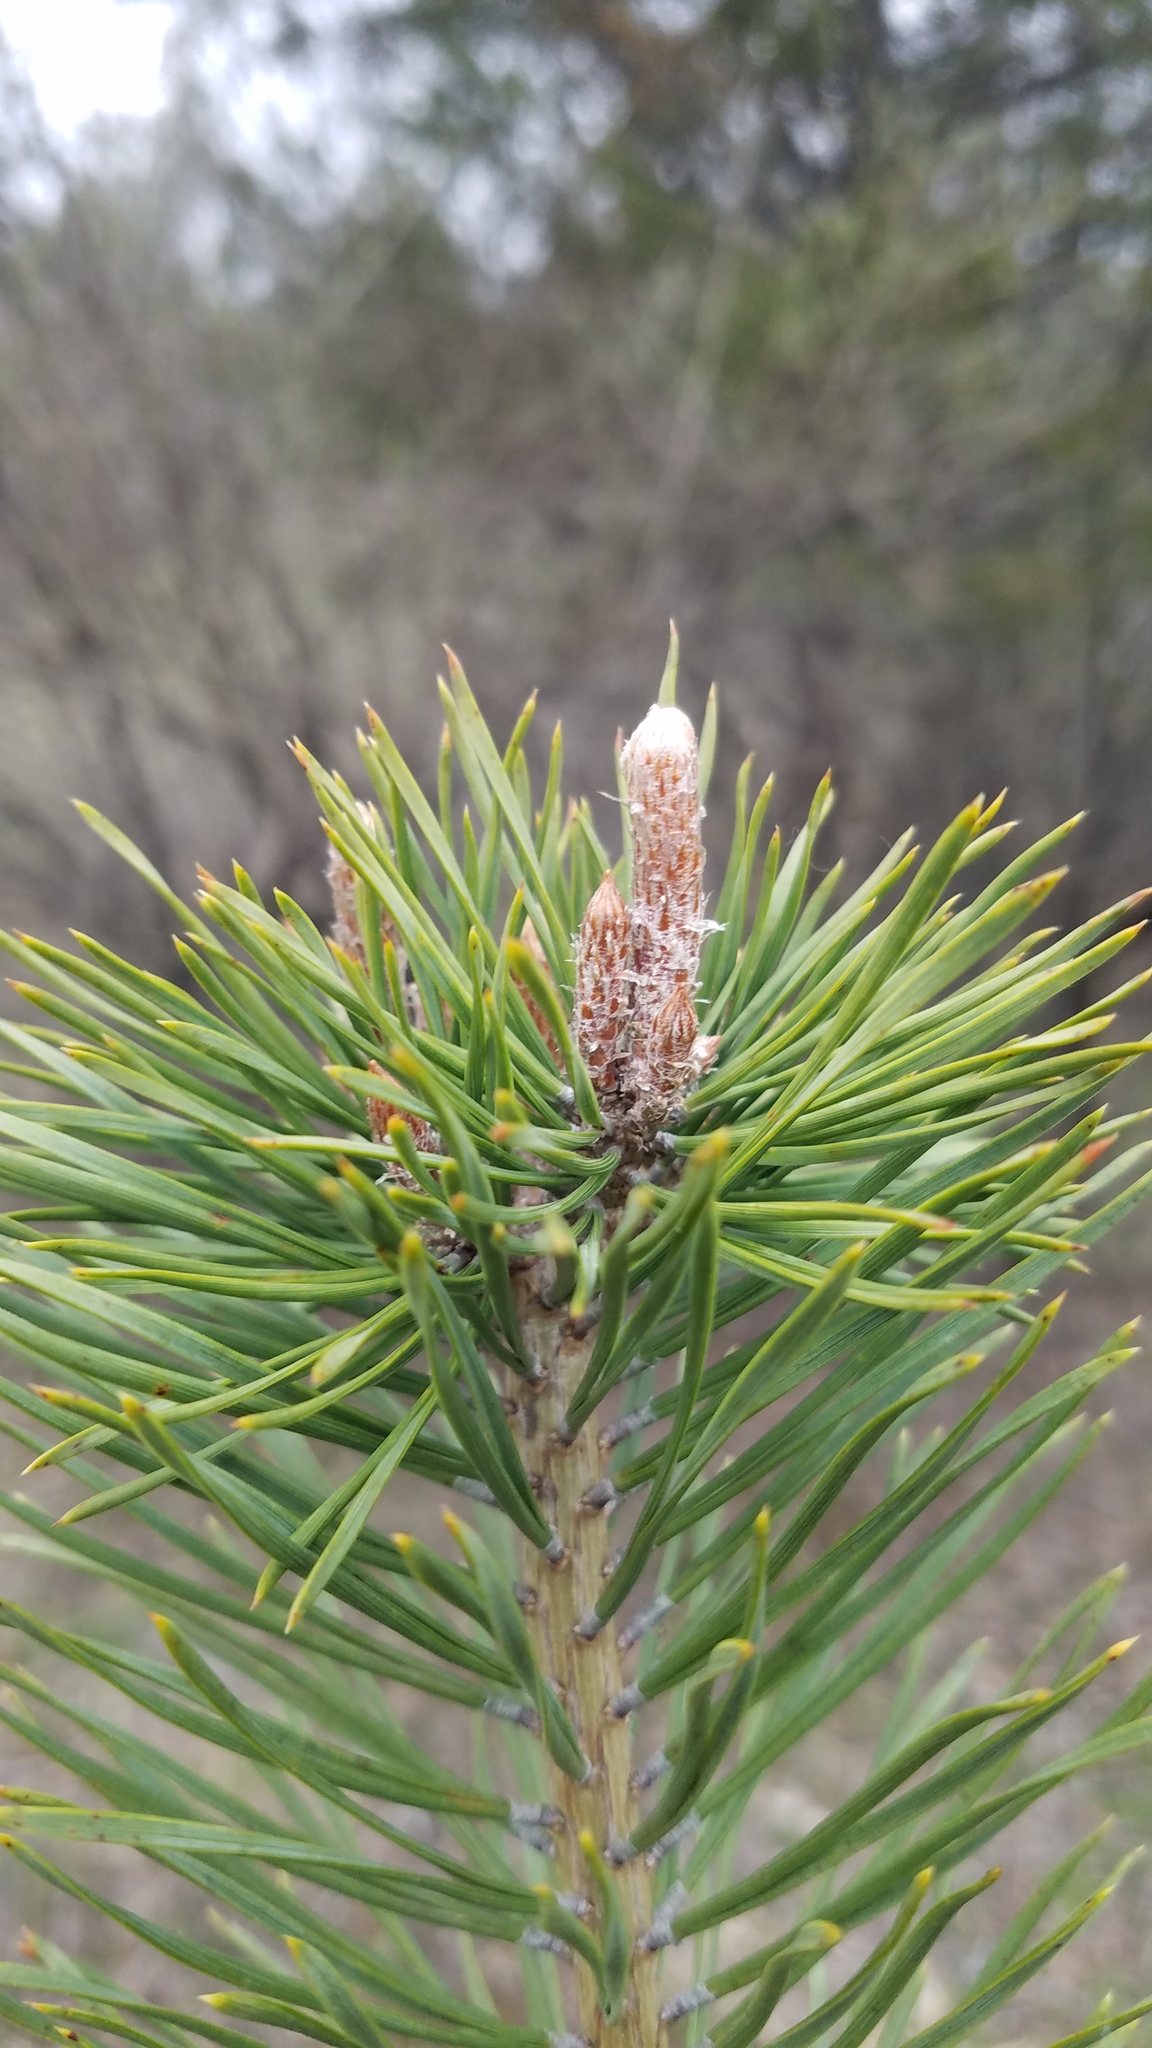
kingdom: Plantae
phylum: Tracheophyta
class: Pinopsida
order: Pinales
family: Pinaceae
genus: Pinus
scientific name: Pinus sylvestris
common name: Scots pine
